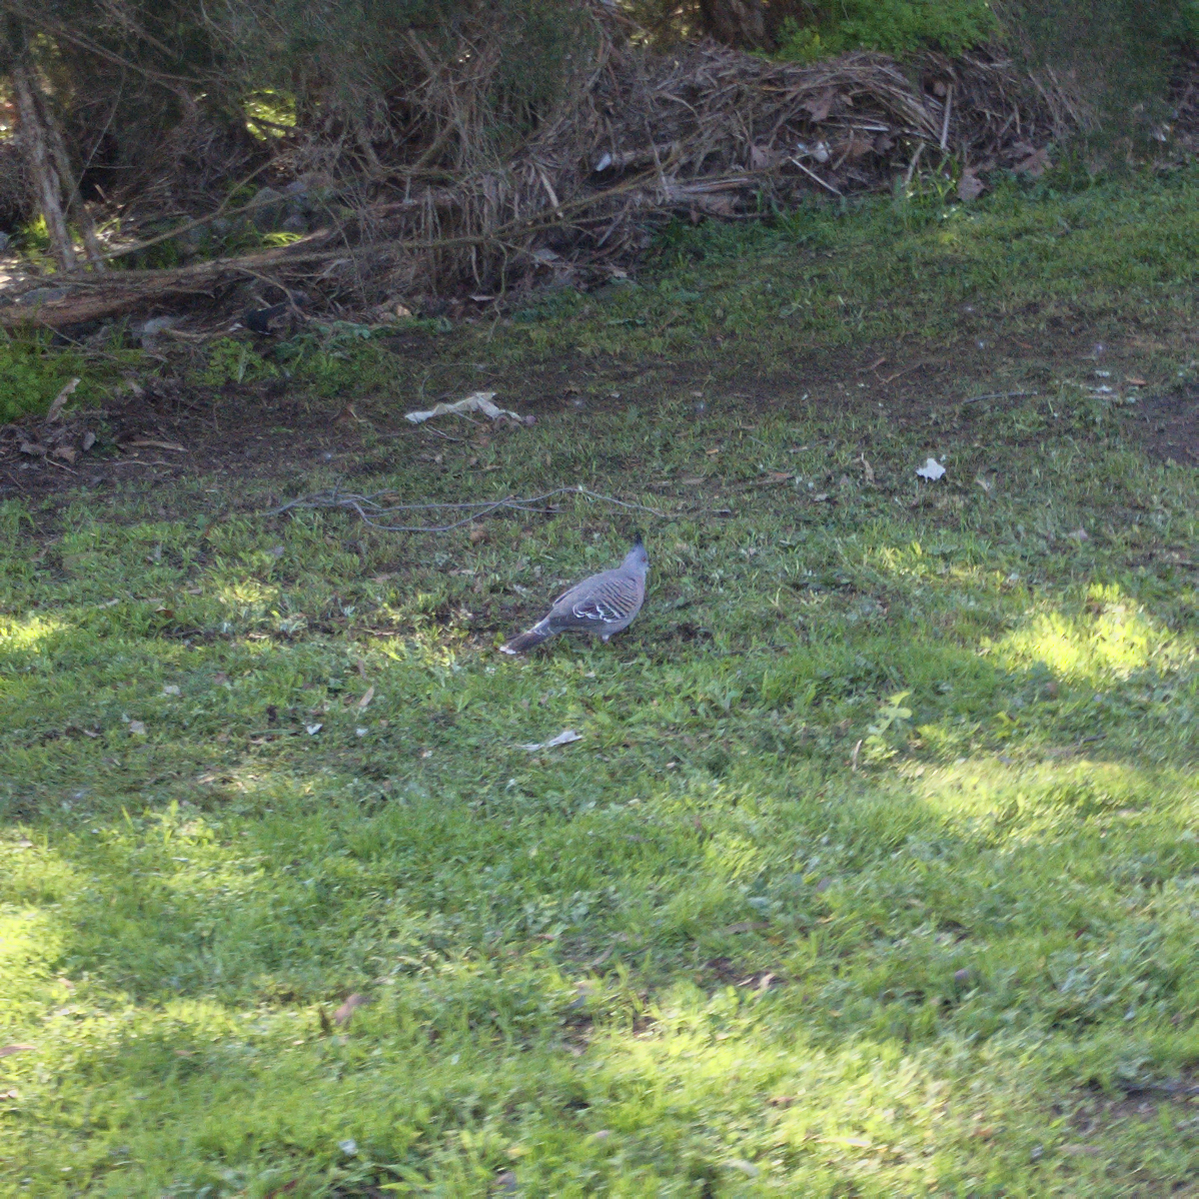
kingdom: Animalia
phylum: Chordata
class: Aves
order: Columbiformes
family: Columbidae
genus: Ocyphaps
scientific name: Ocyphaps lophotes
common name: Crested pigeon
